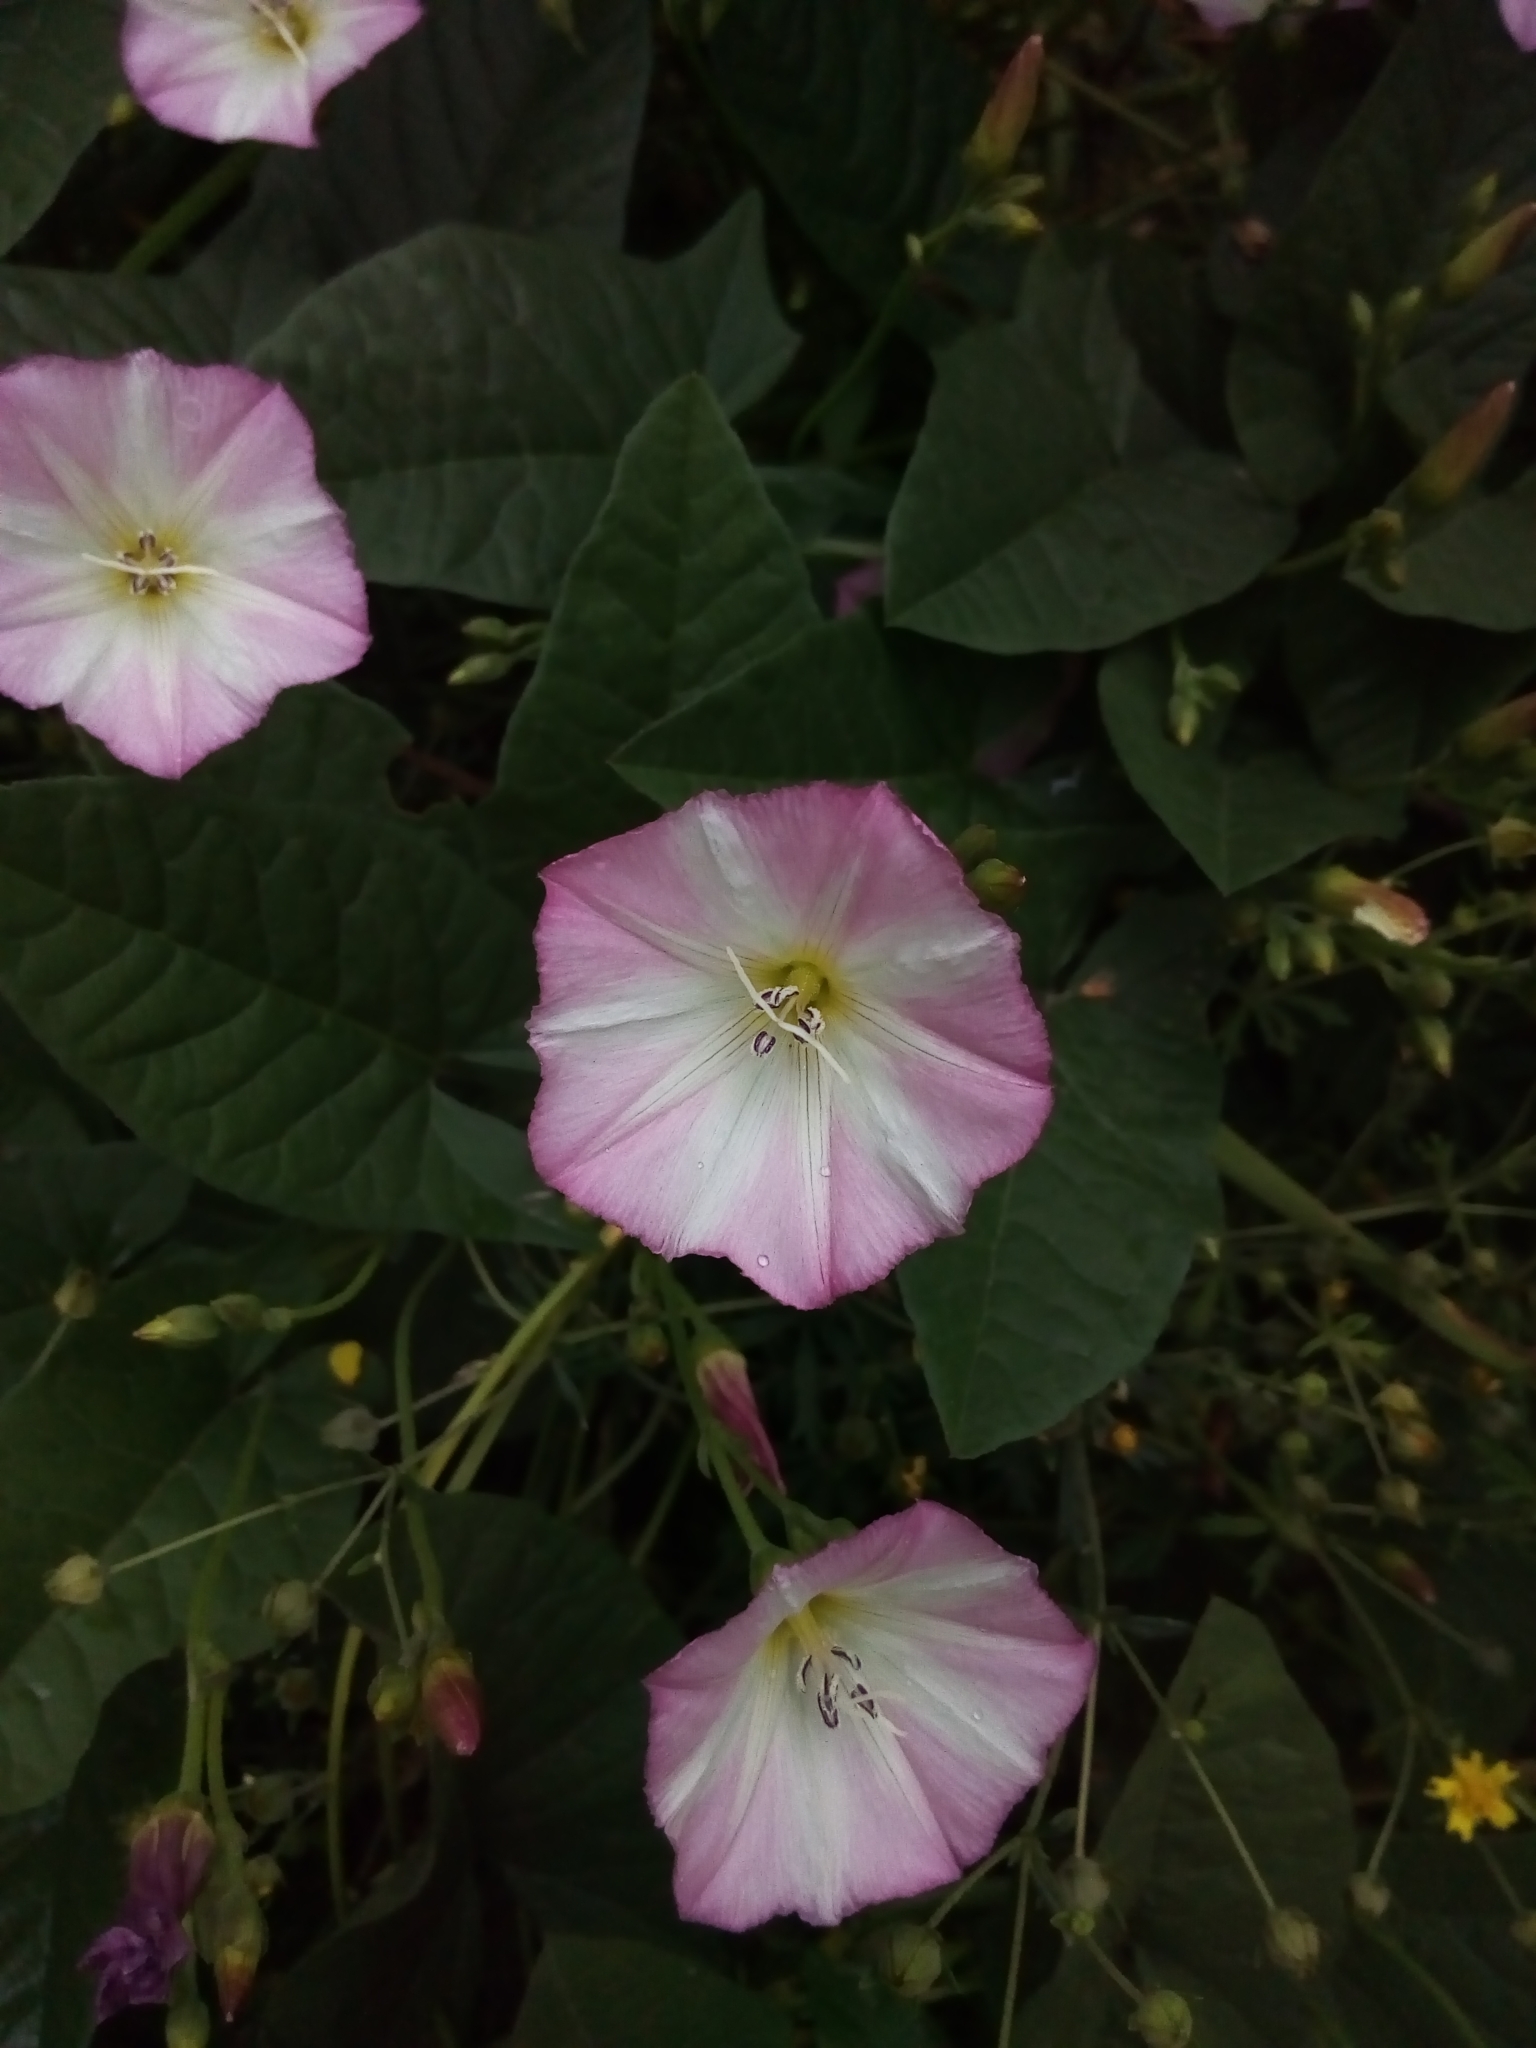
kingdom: Plantae
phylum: Tracheophyta
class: Magnoliopsida
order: Solanales
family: Convolvulaceae
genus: Convolvulus
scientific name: Convolvulus arvensis
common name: Field bindweed
